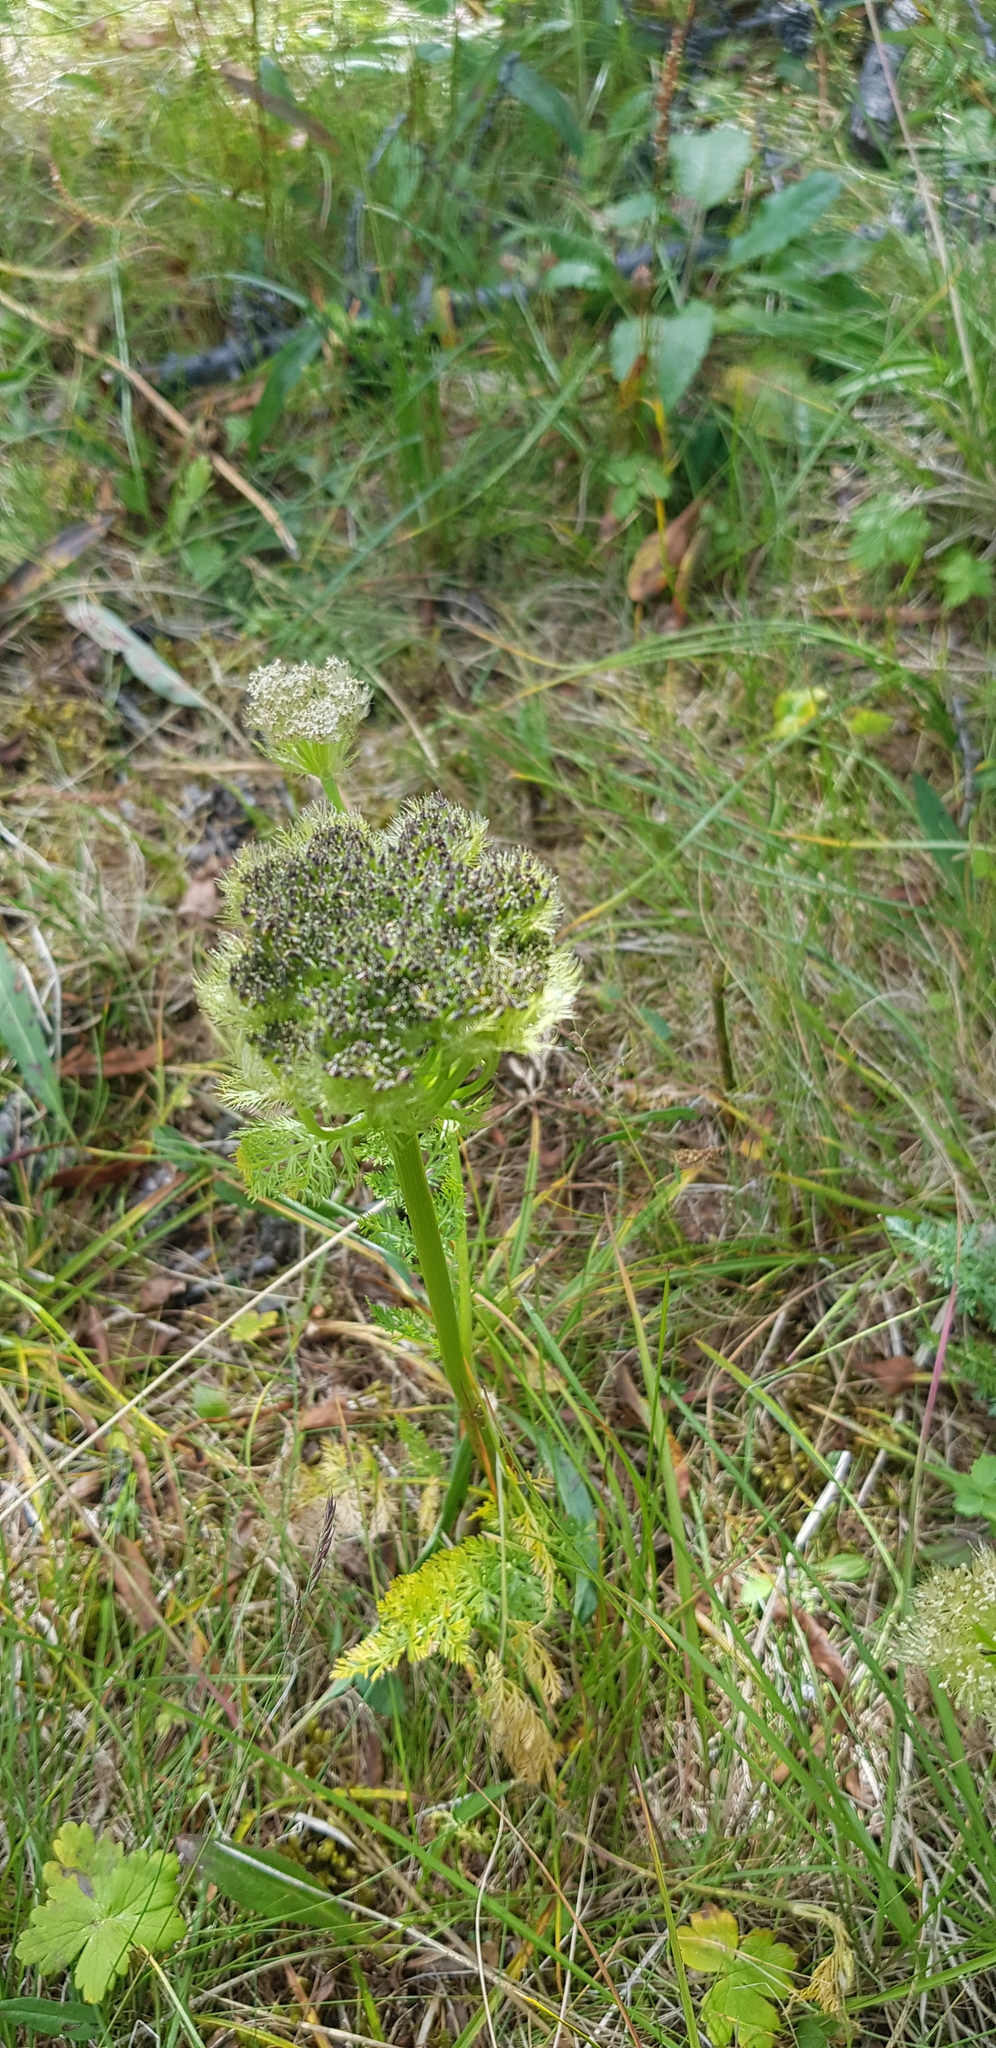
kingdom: Plantae
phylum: Tracheophyta
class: Magnoliopsida
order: Apiales
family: Apiaceae
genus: Schulzia
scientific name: Schulzia crinita
